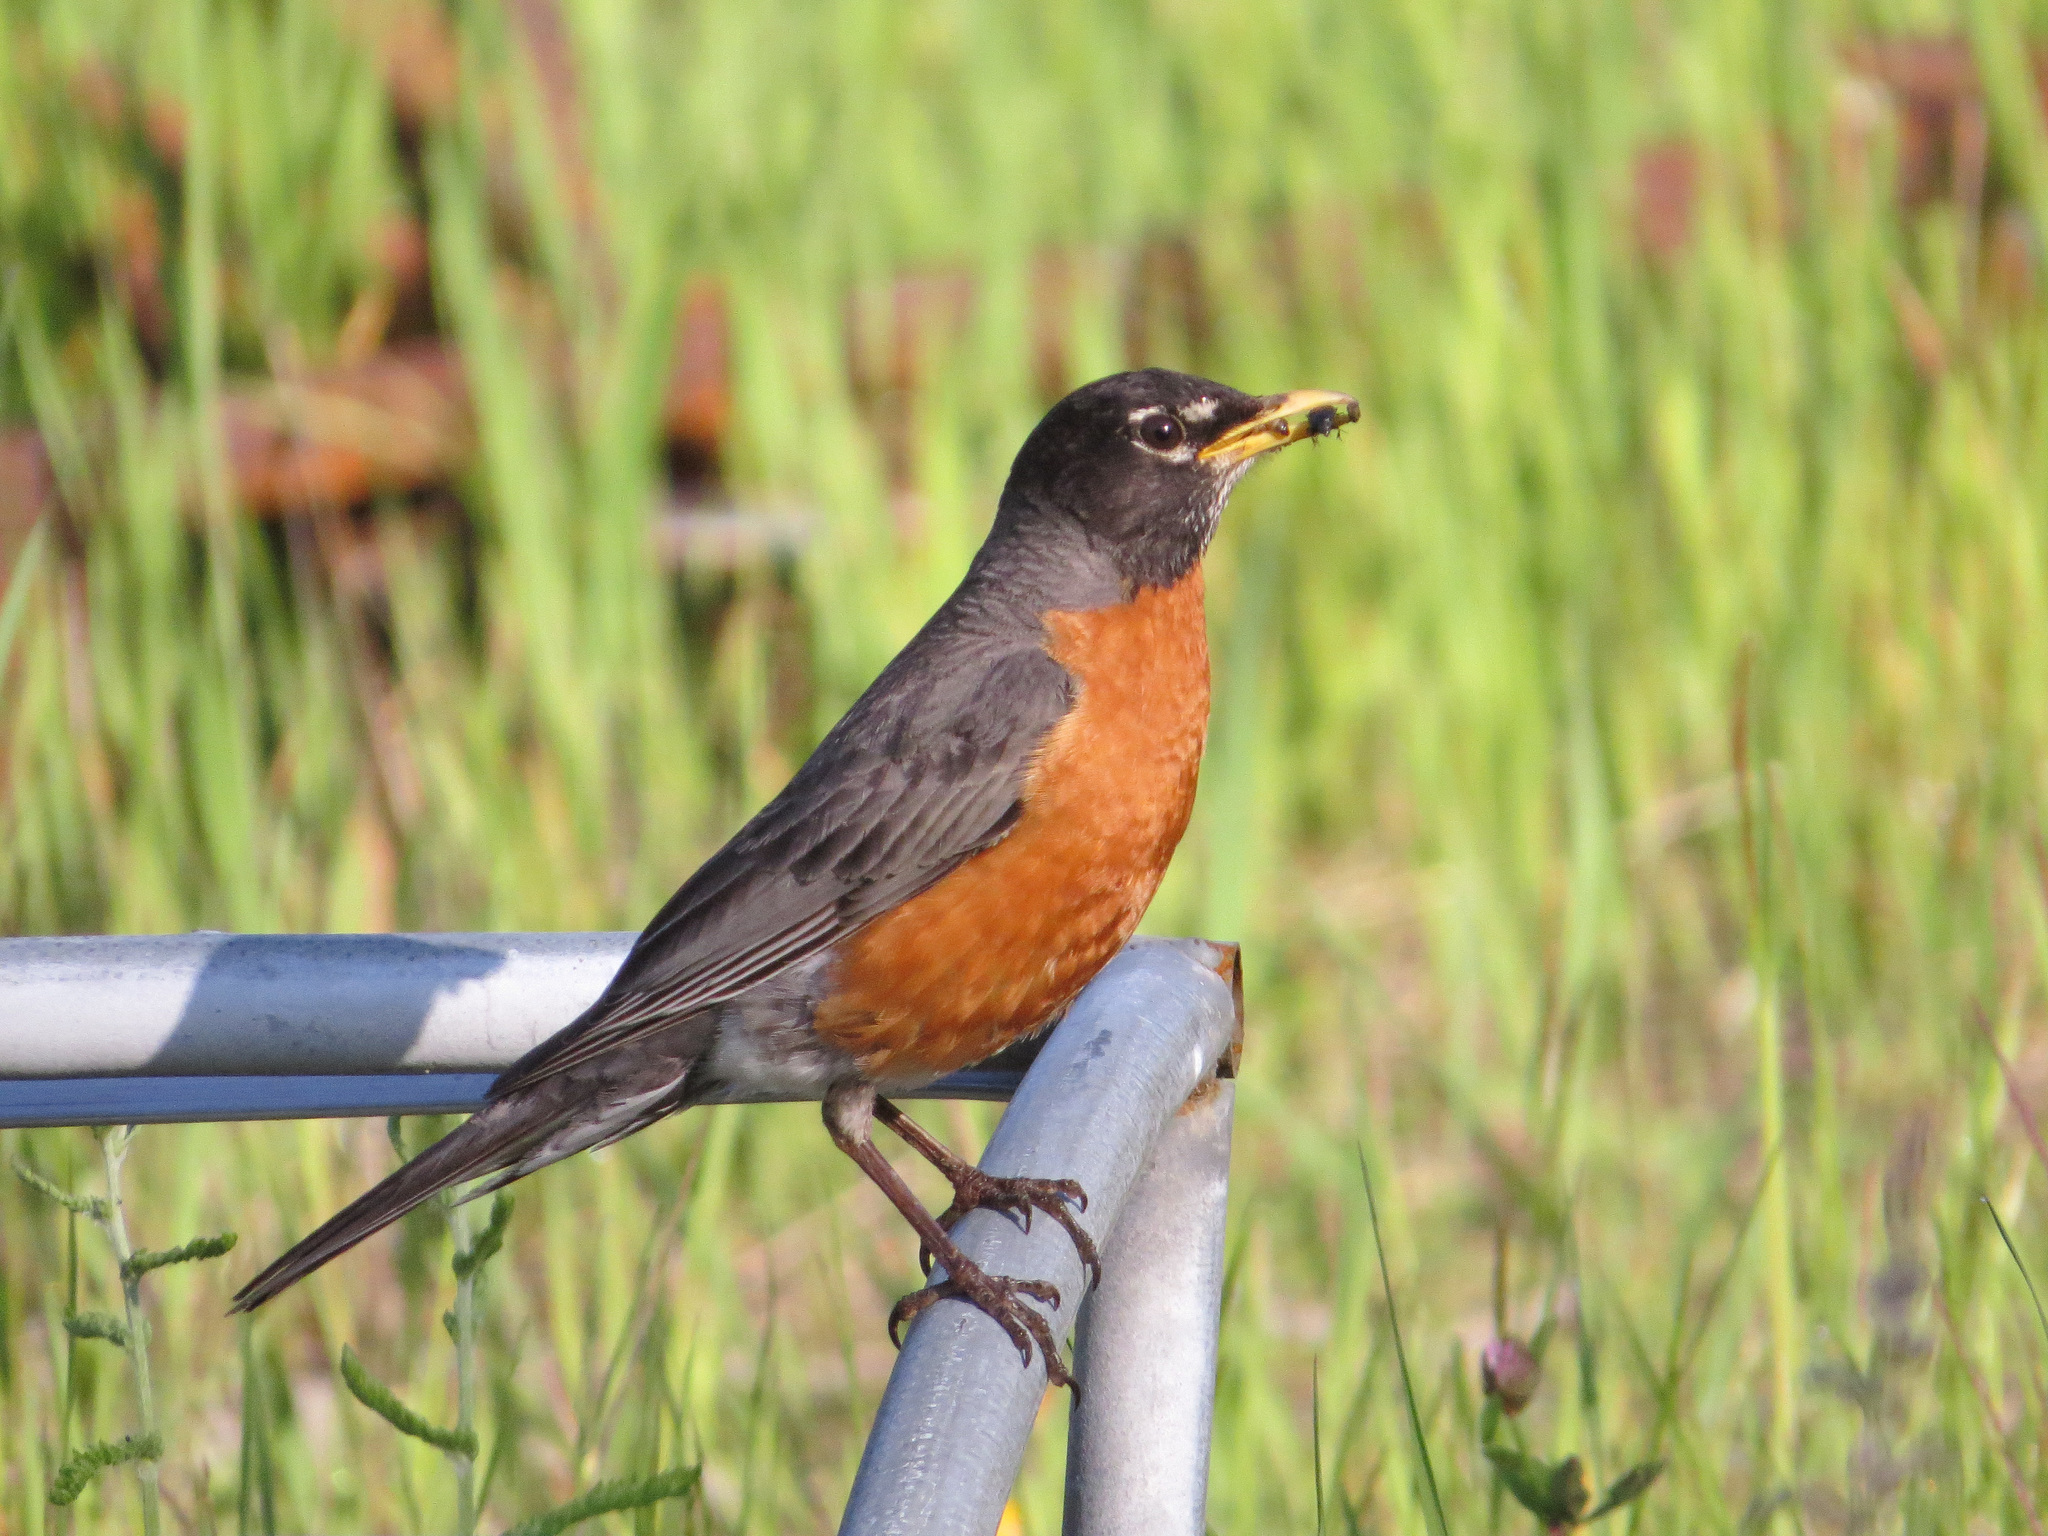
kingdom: Animalia
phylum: Chordata
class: Aves
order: Passeriformes
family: Turdidae
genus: Turdus
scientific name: Turdus migratorius
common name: American robin
